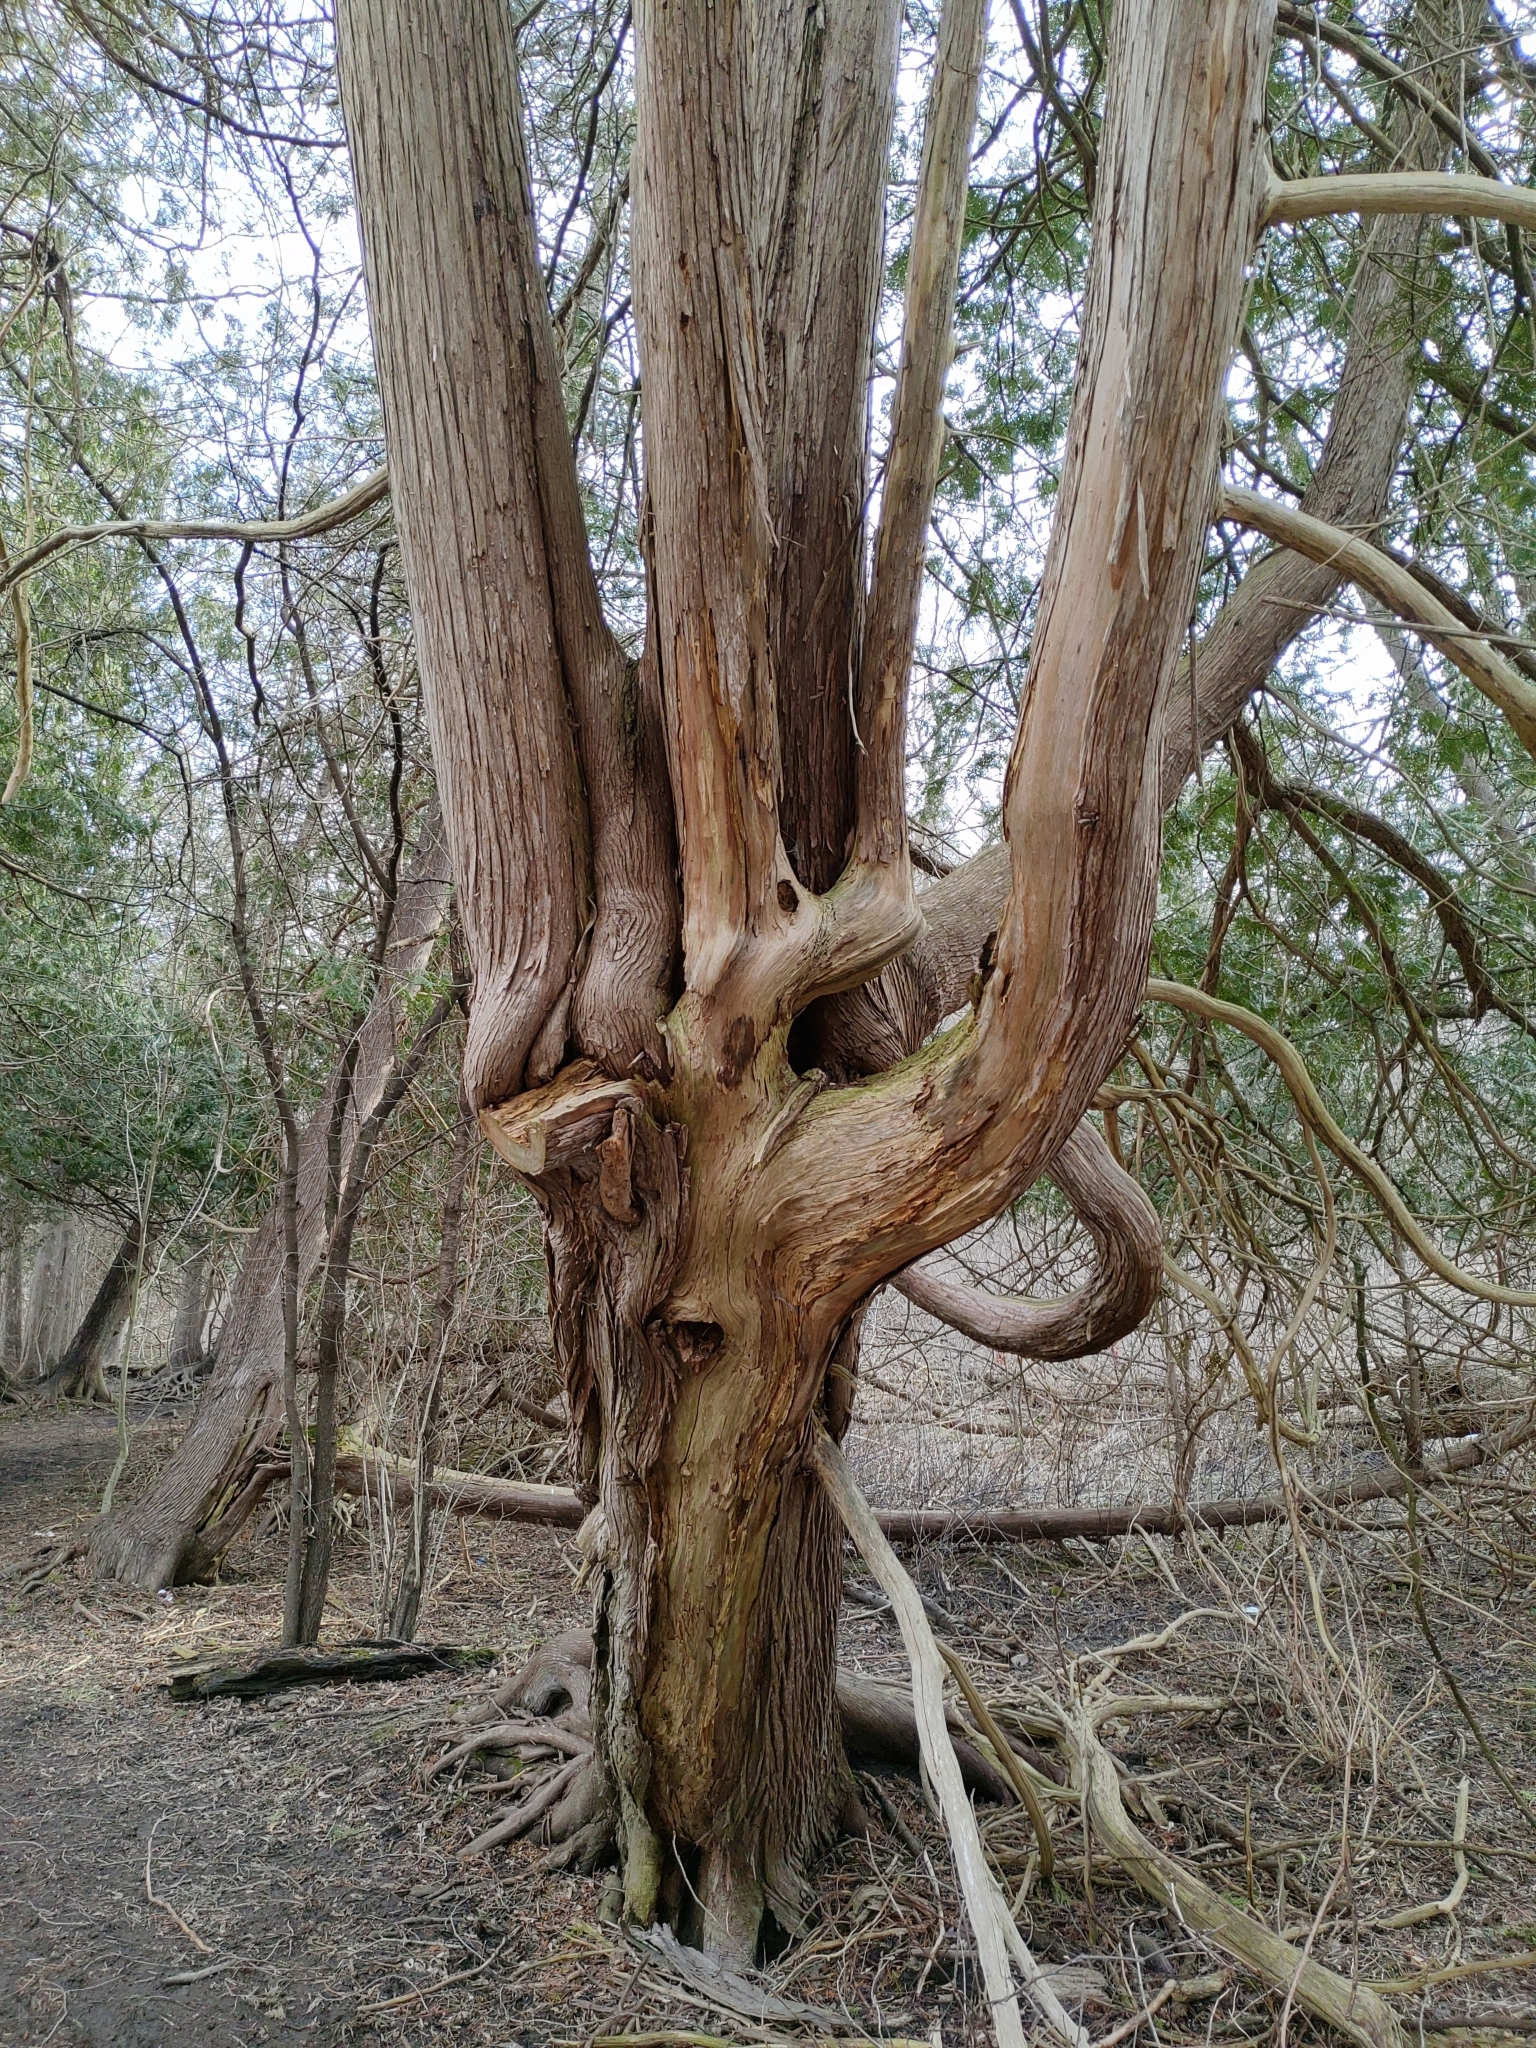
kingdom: Plantae
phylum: Tracheophyta
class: Pinopsida
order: Pinales
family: Cupressaceae
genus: Thuja
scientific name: Thuja occidentalis
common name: Northern white-cedar
